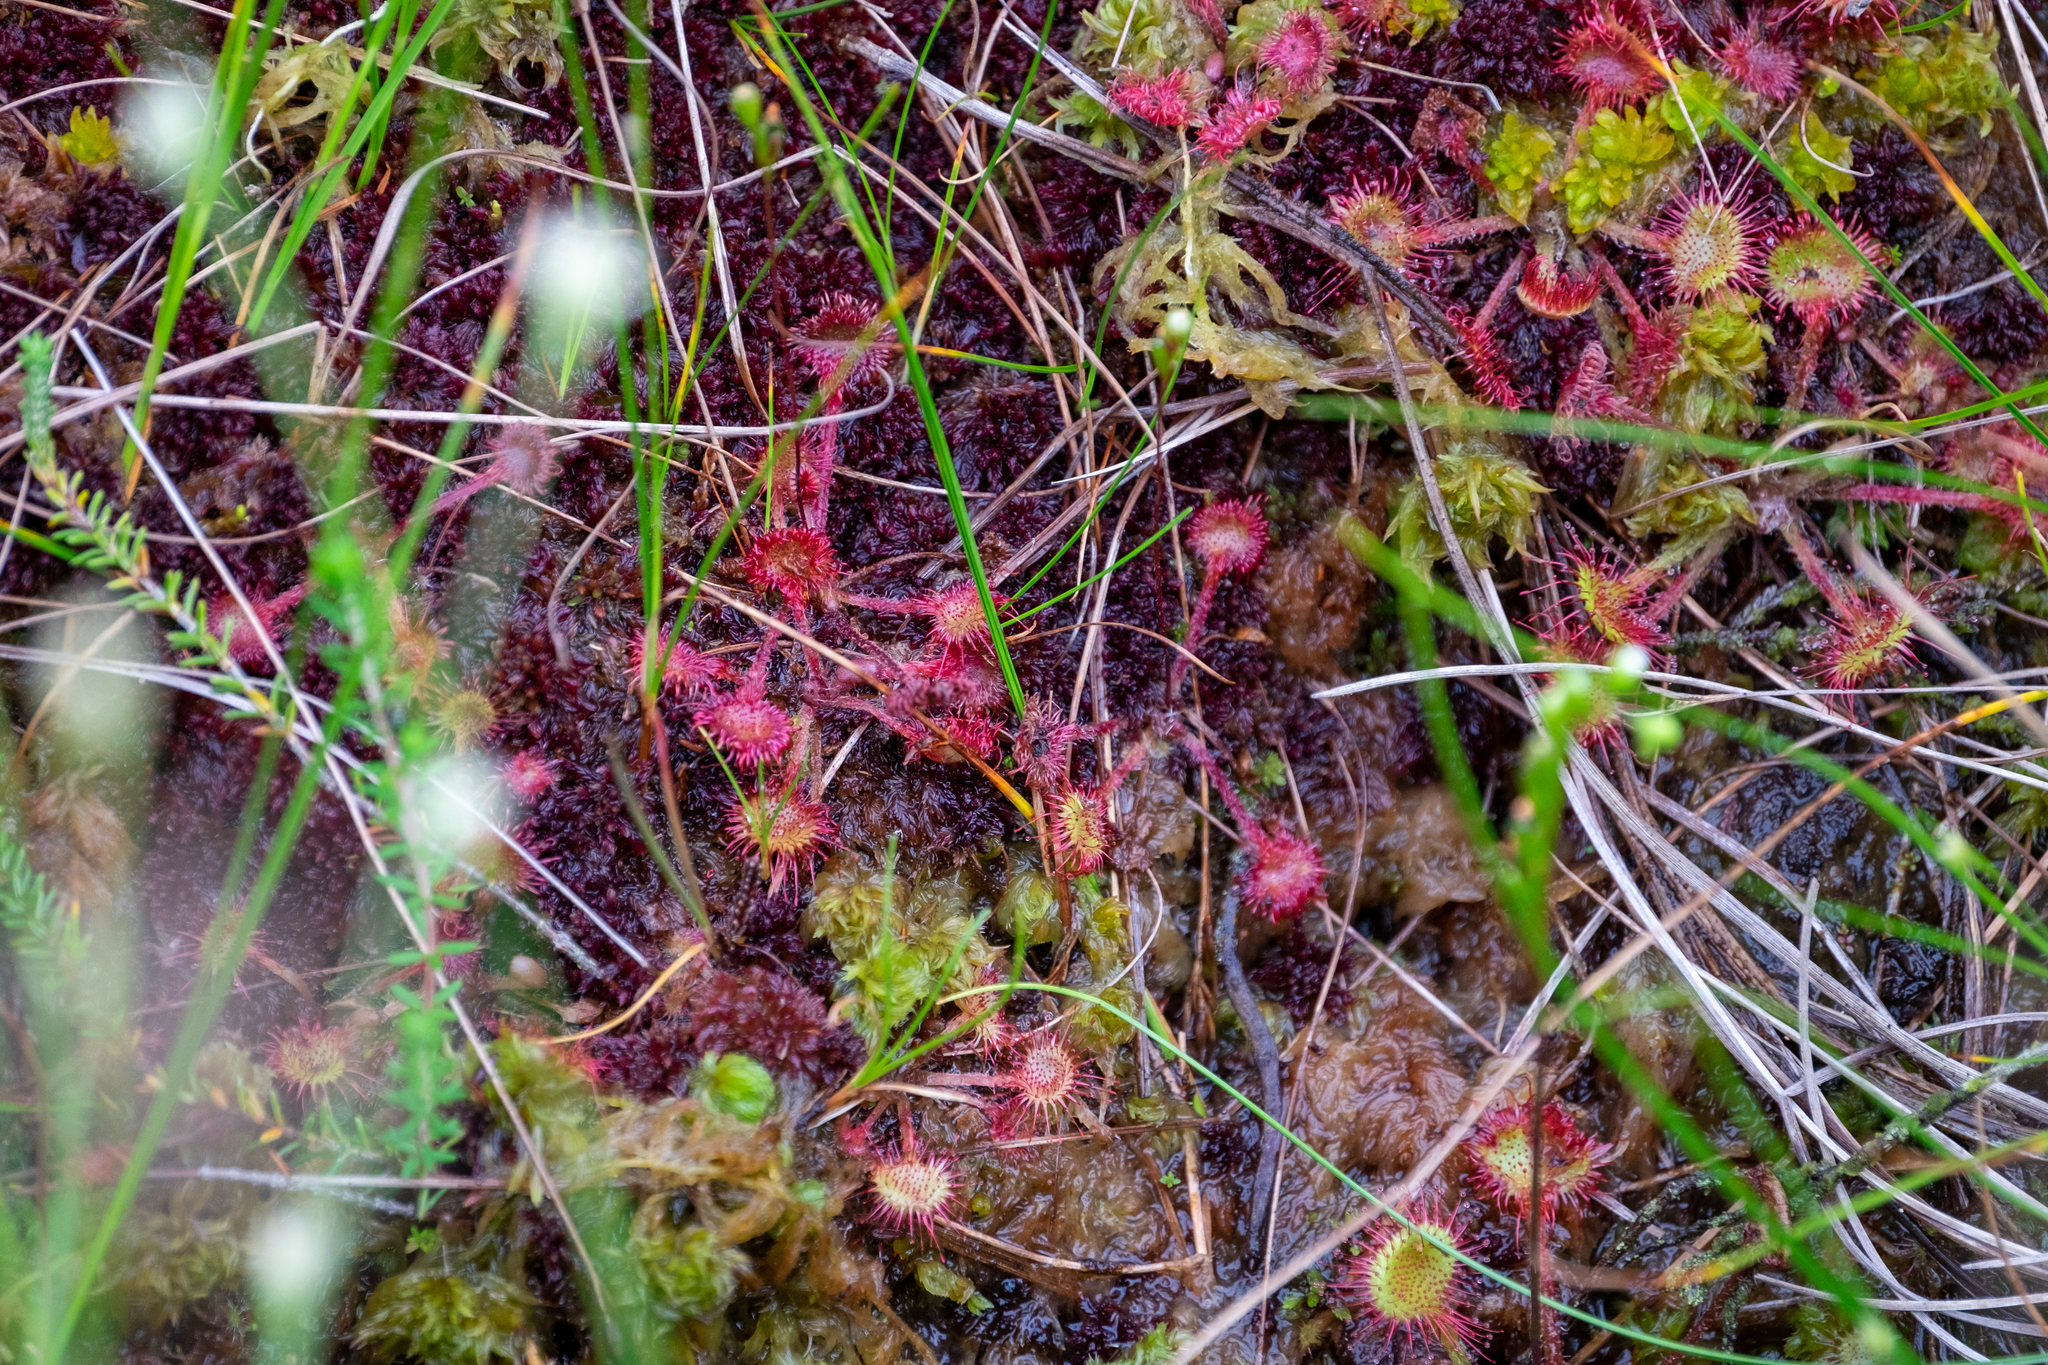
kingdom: Plantae
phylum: Tracheophyta
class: Magnoliopsida
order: Caryophyllales
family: Droseraceae
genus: Drosera
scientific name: Drosera rotundifolia
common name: Round-leaved sundew
